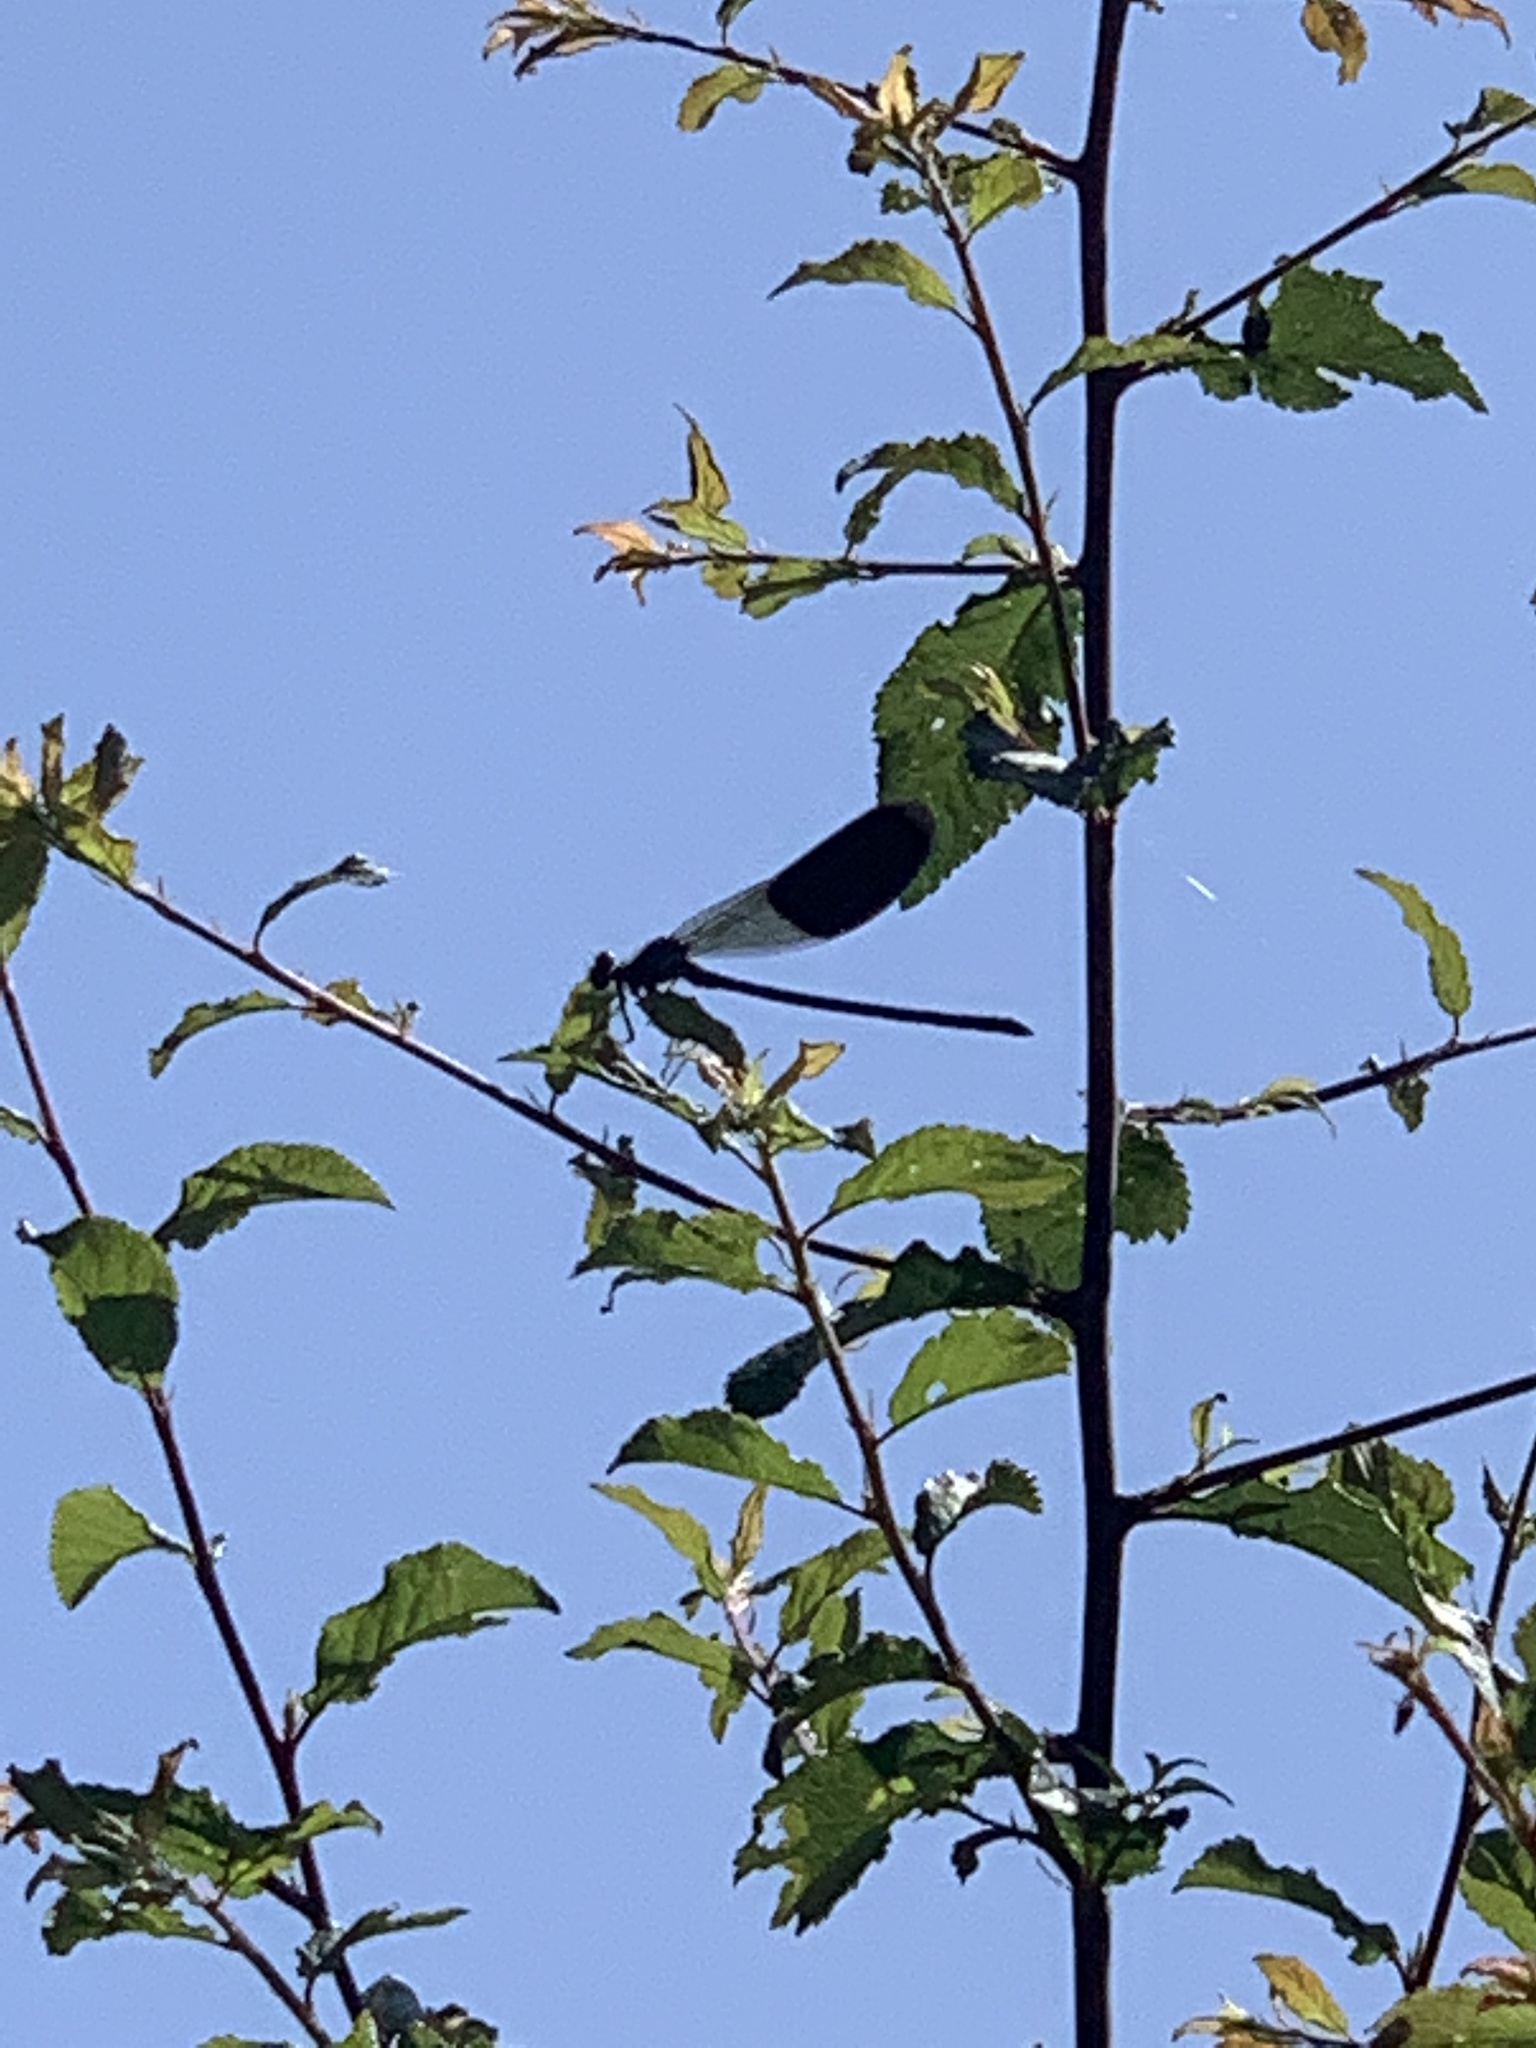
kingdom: Animalia
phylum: Arthropoda
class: Insecta
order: Odonata
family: Calopterygidae
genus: Calopteryx
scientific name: Calopteryx splendens
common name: Banded demoiselle
